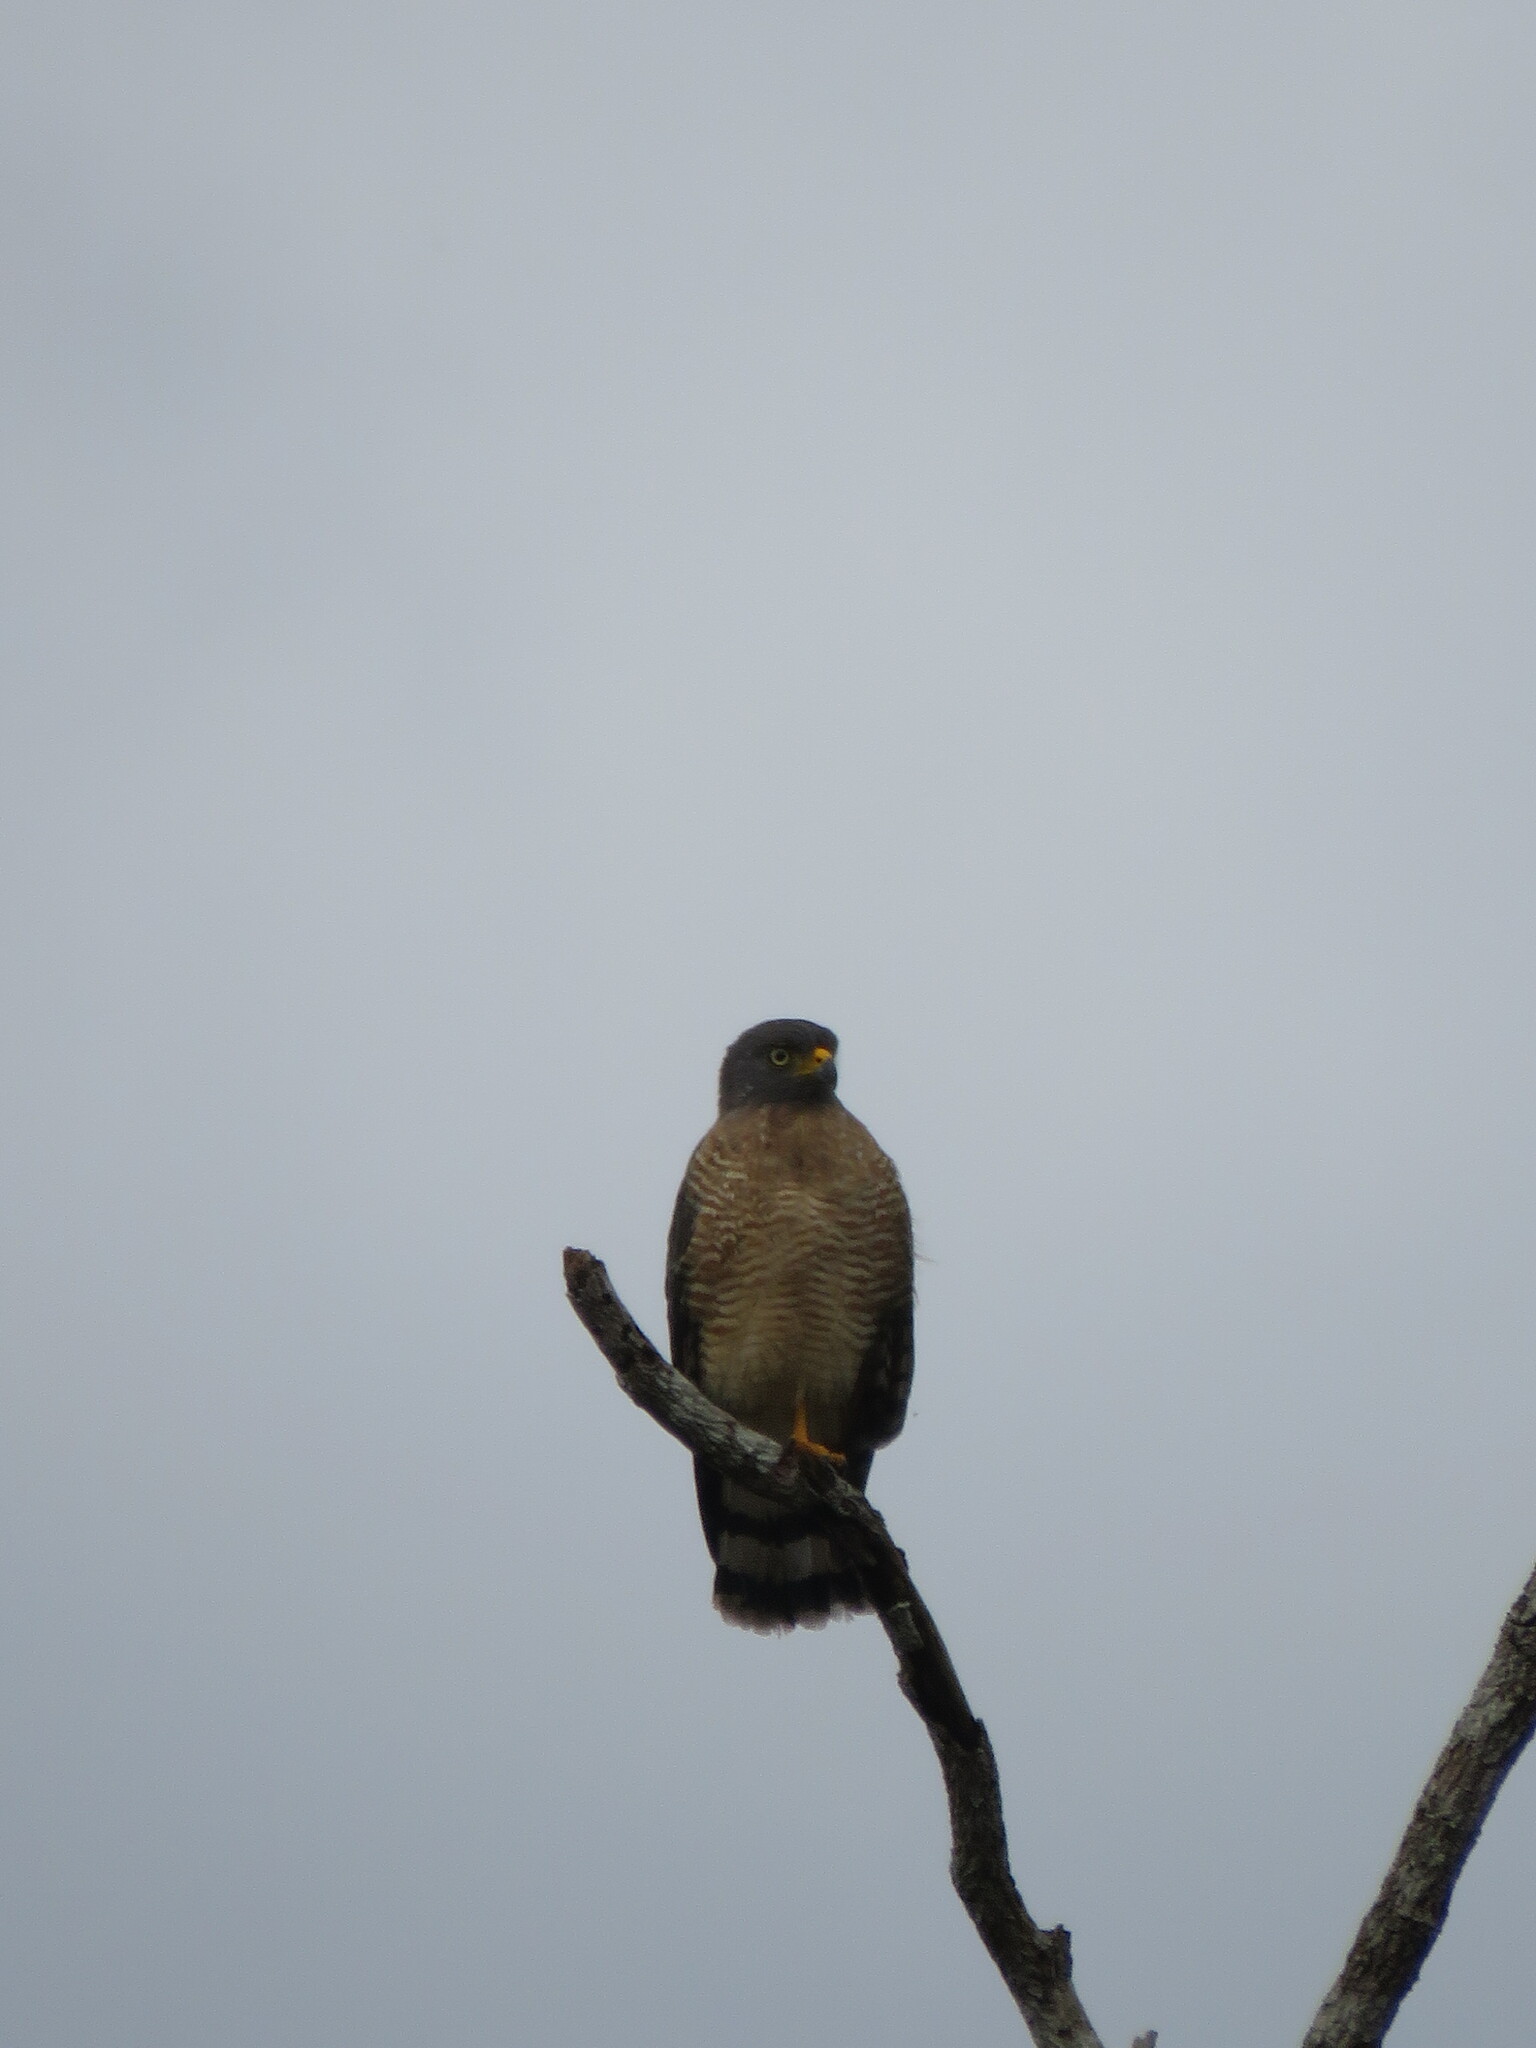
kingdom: Animalia
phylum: Chordata
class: Aves
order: Accipitriformes
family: Accipitridae
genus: Rupornis
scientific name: Rupornis magnirostris
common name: Roadside hawk
